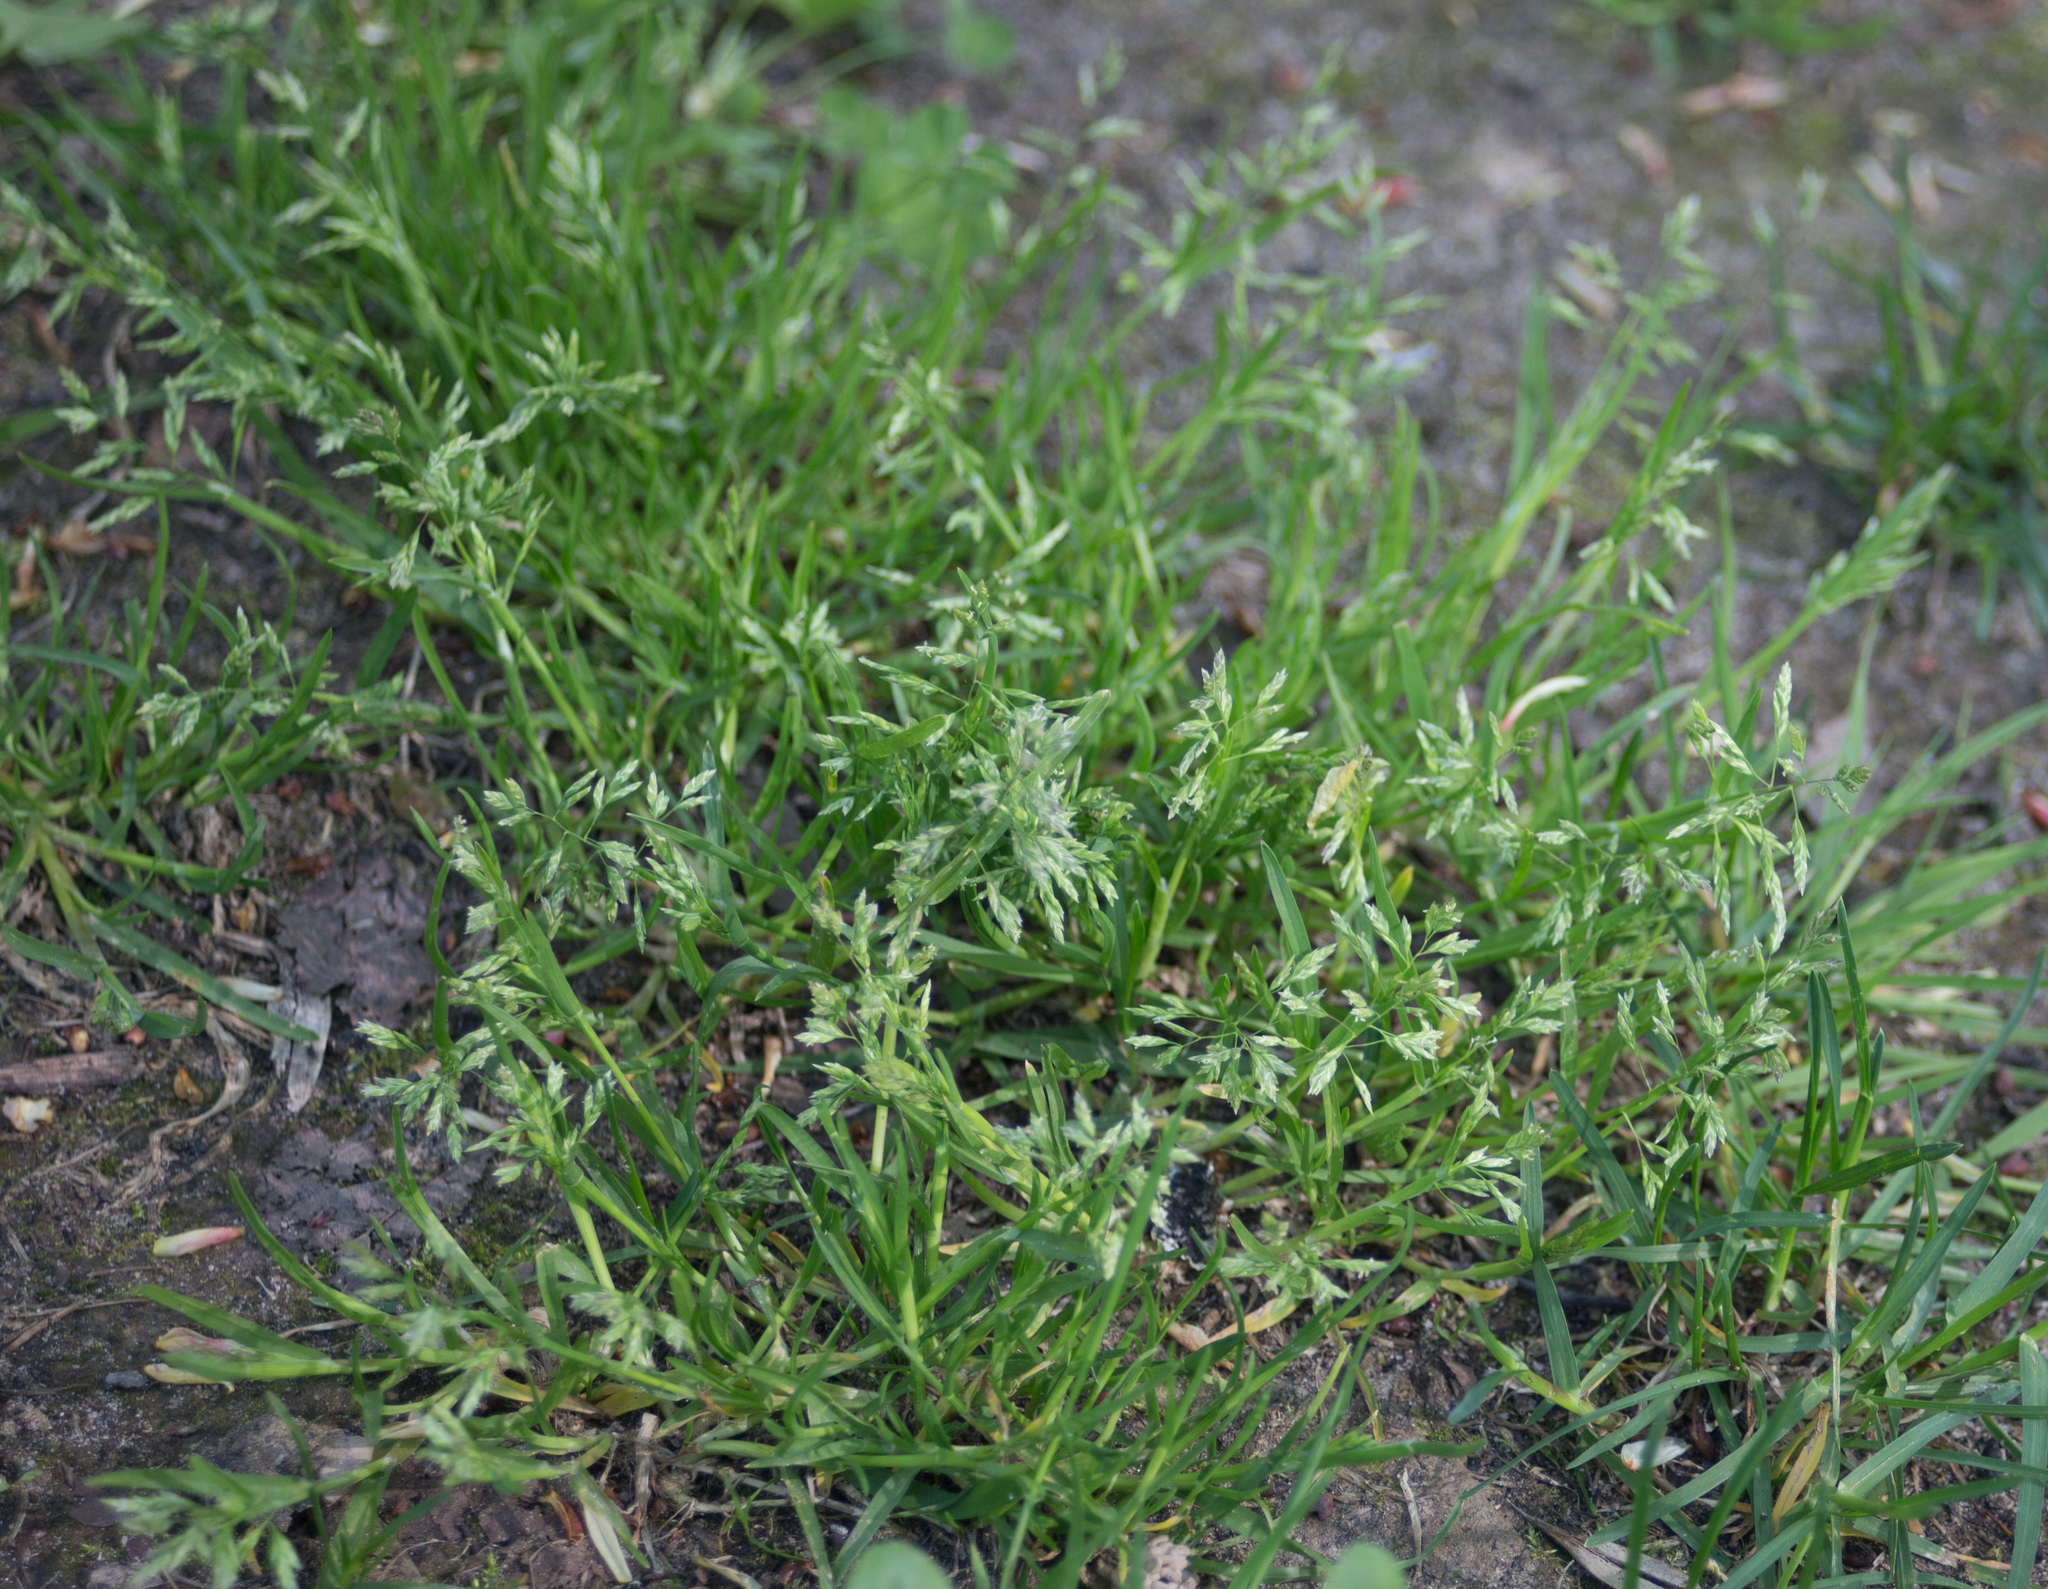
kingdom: Plantae
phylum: Tracheophyta
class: Liliopsida
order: Poales
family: Poaceae
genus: Poa
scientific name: Poa annua
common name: Annual bluegrass
